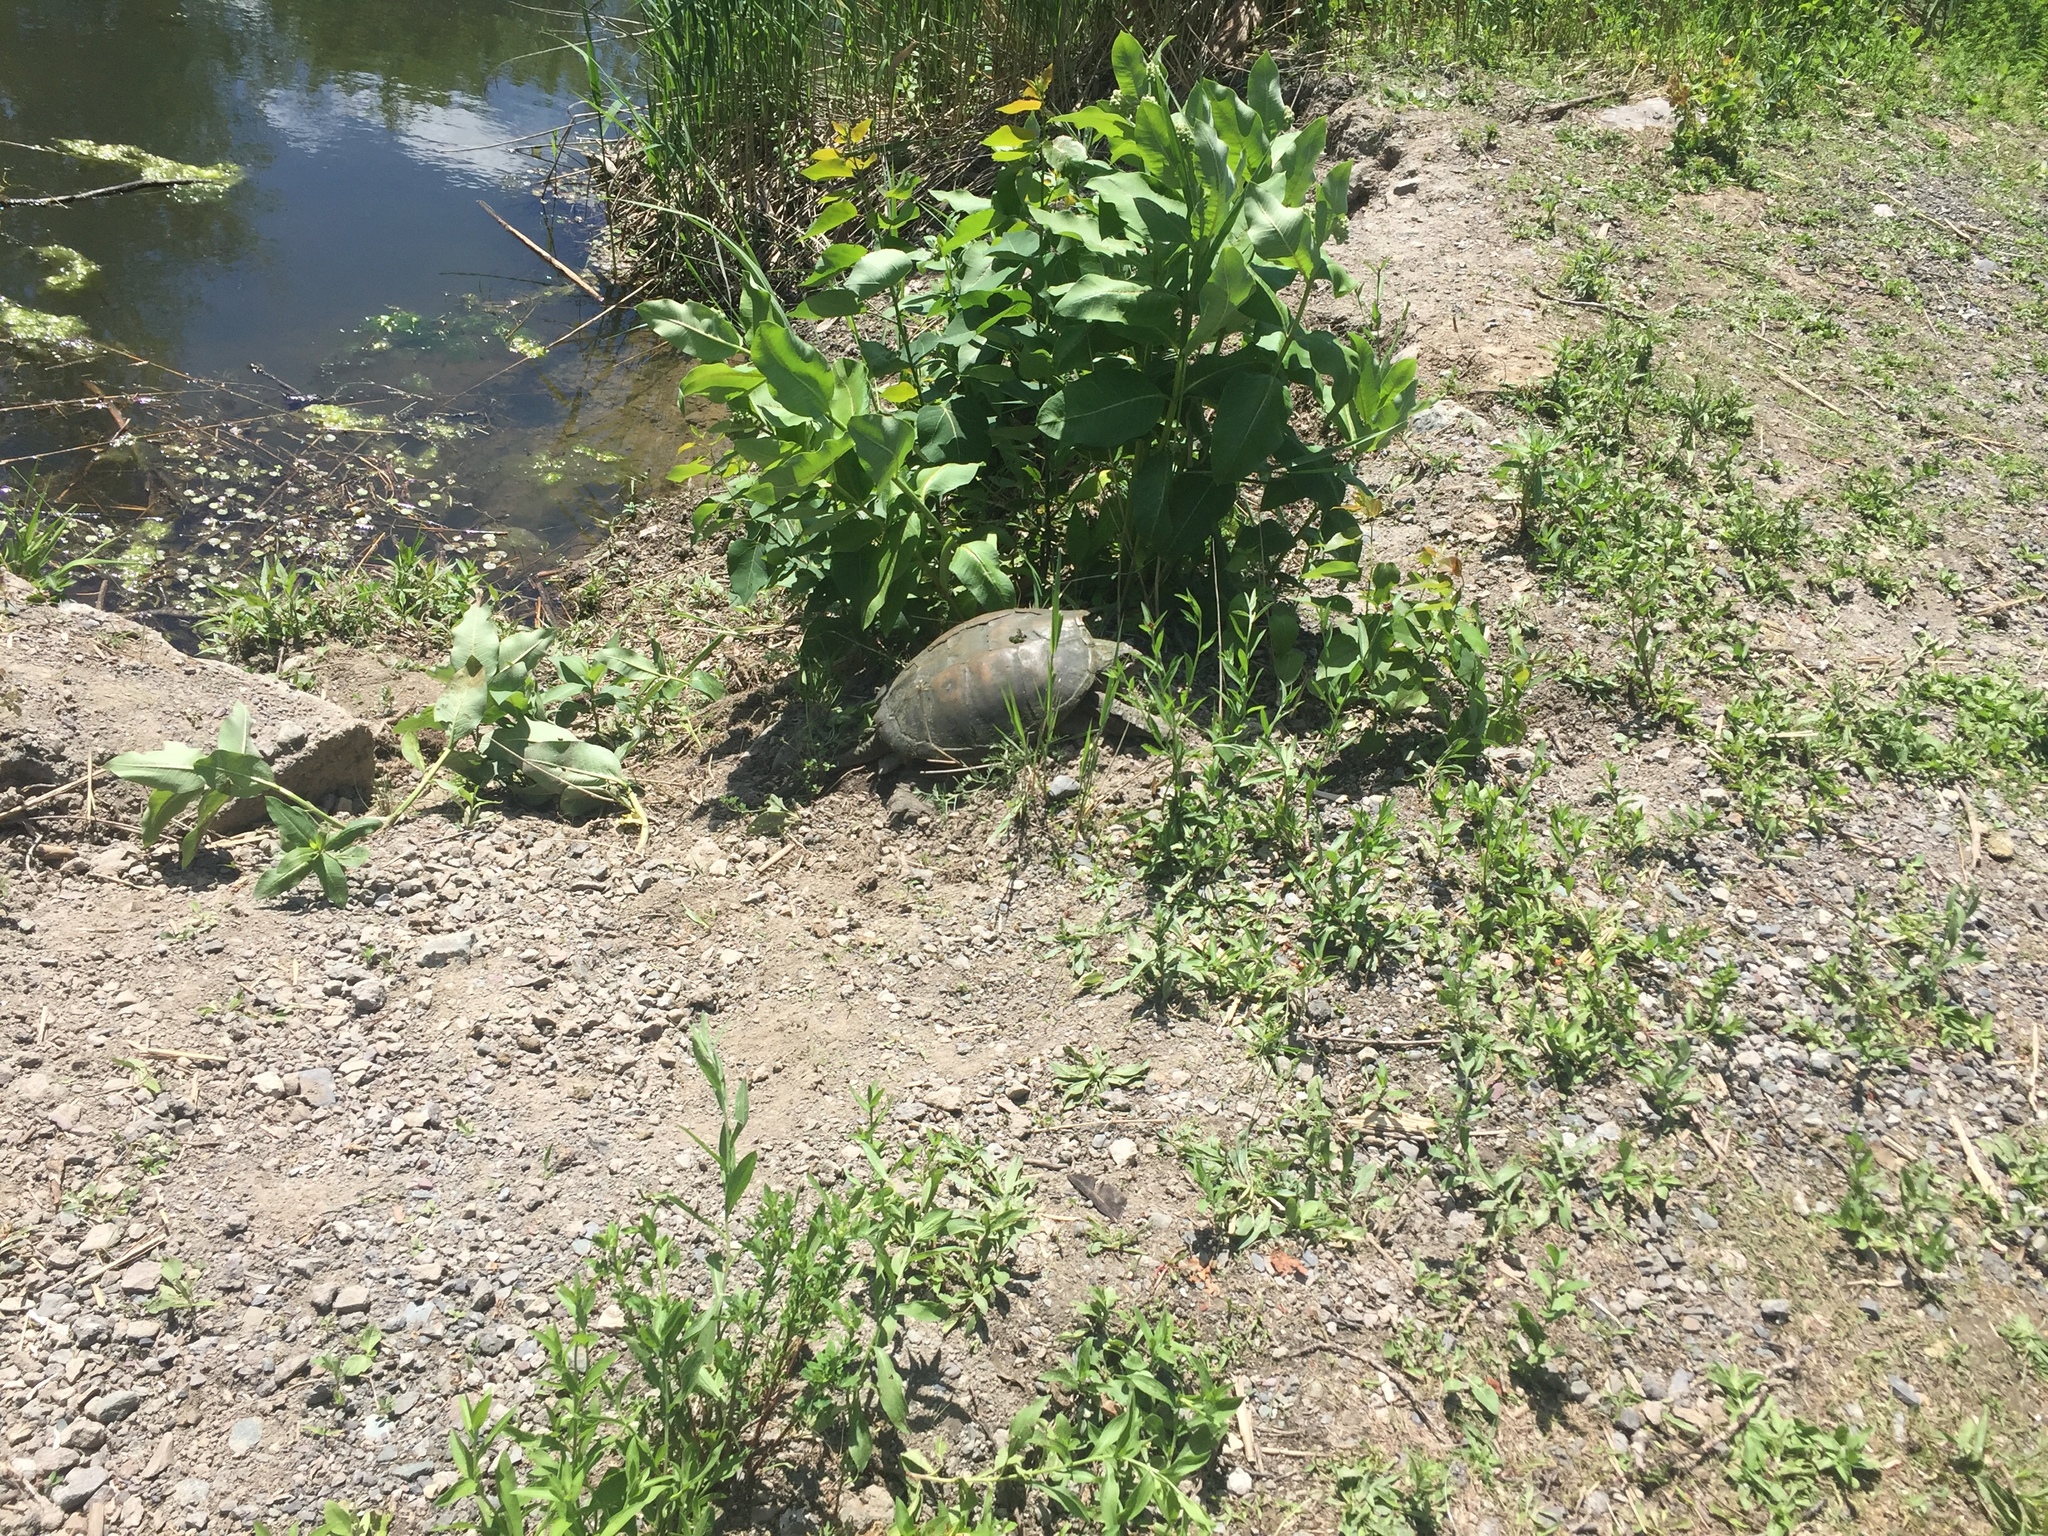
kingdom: Animalia
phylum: Chordata
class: Testudines
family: Chelydridae
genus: Chelydra
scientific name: Chelydra serpentina
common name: Common snapping turtle
